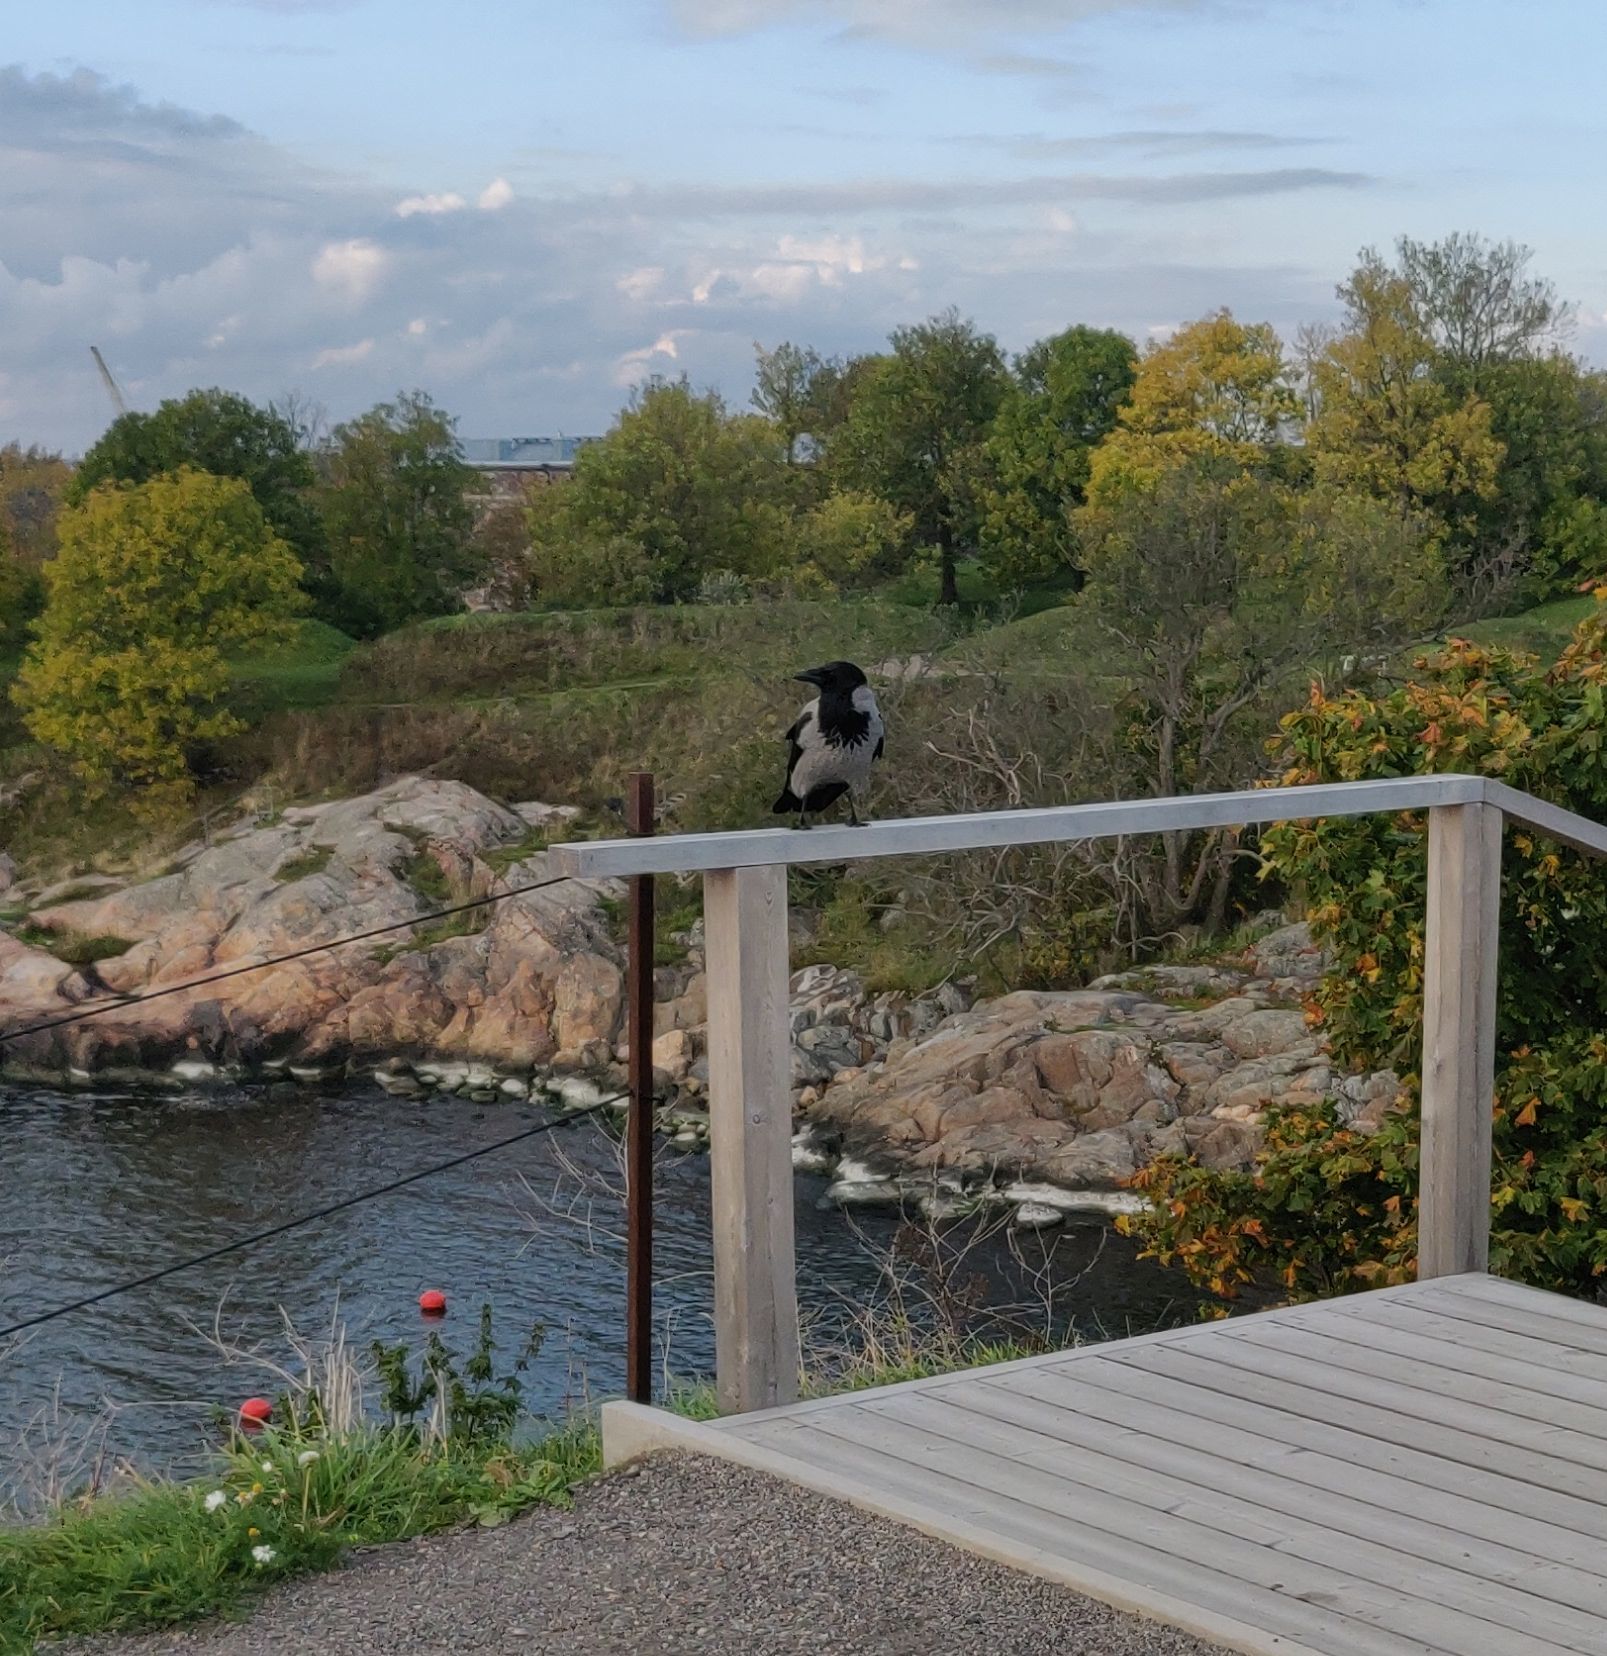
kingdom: Animalia
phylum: Chordata
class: Aves
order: Passeriformes
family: Corvidae
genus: Corvus
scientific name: Corvus cornix
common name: Hooded crow
